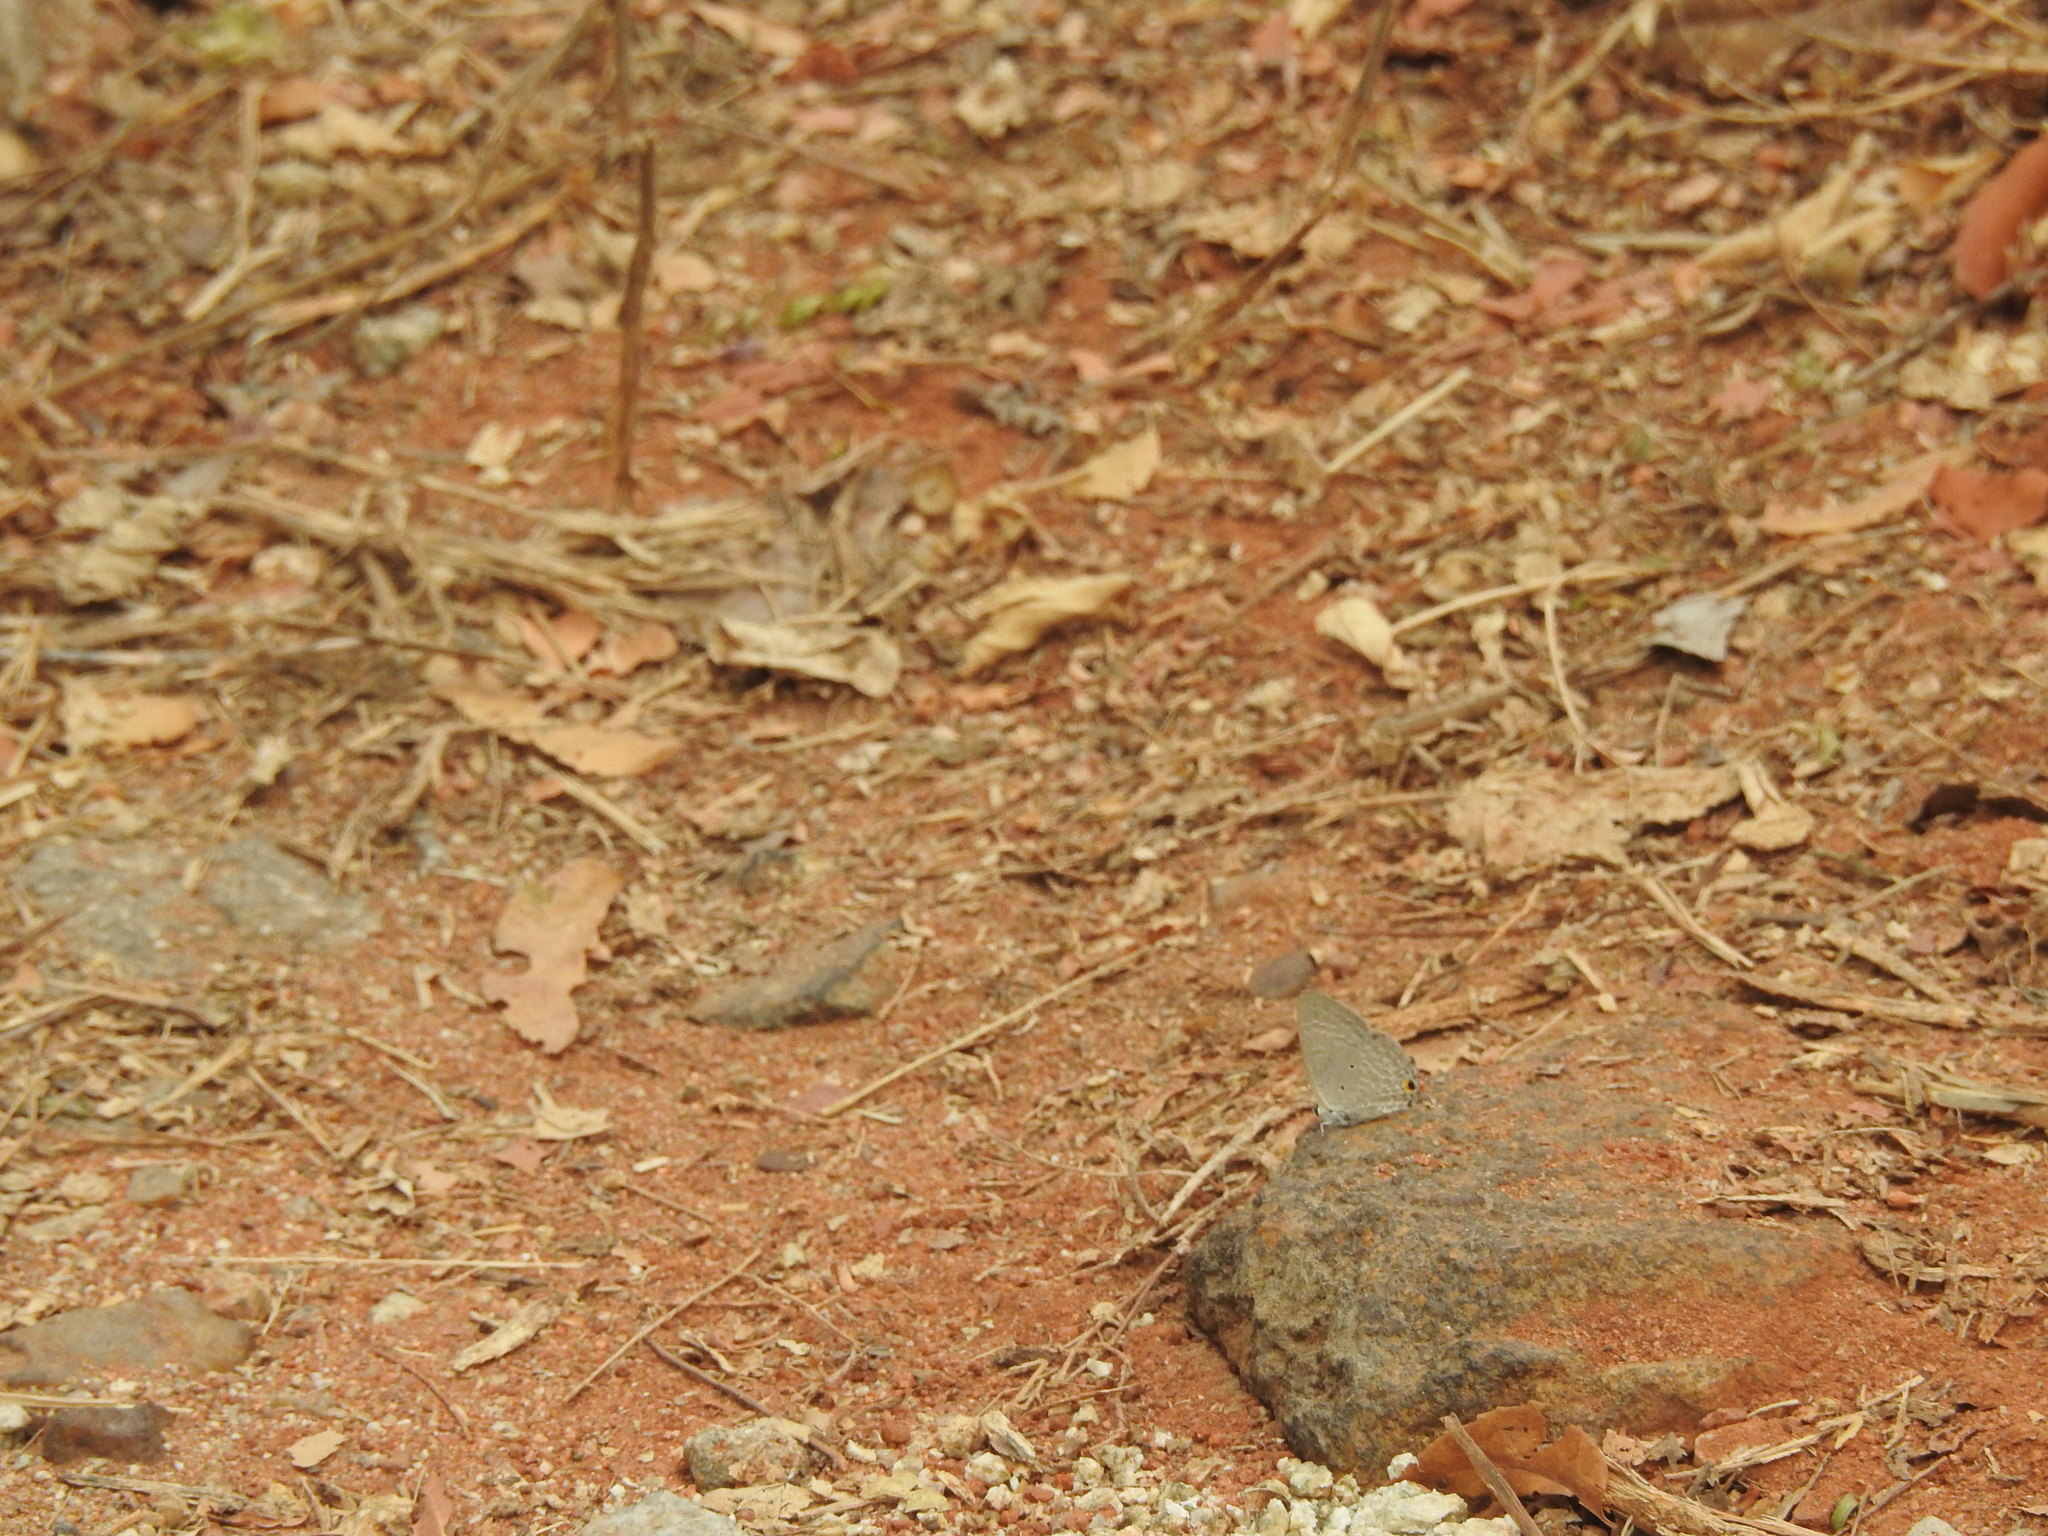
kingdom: Animalia
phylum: Arthropoda
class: Insecta
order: Lepidoptera
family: Lycaenidae
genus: Catochrysops
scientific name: Catochrysops strabo
